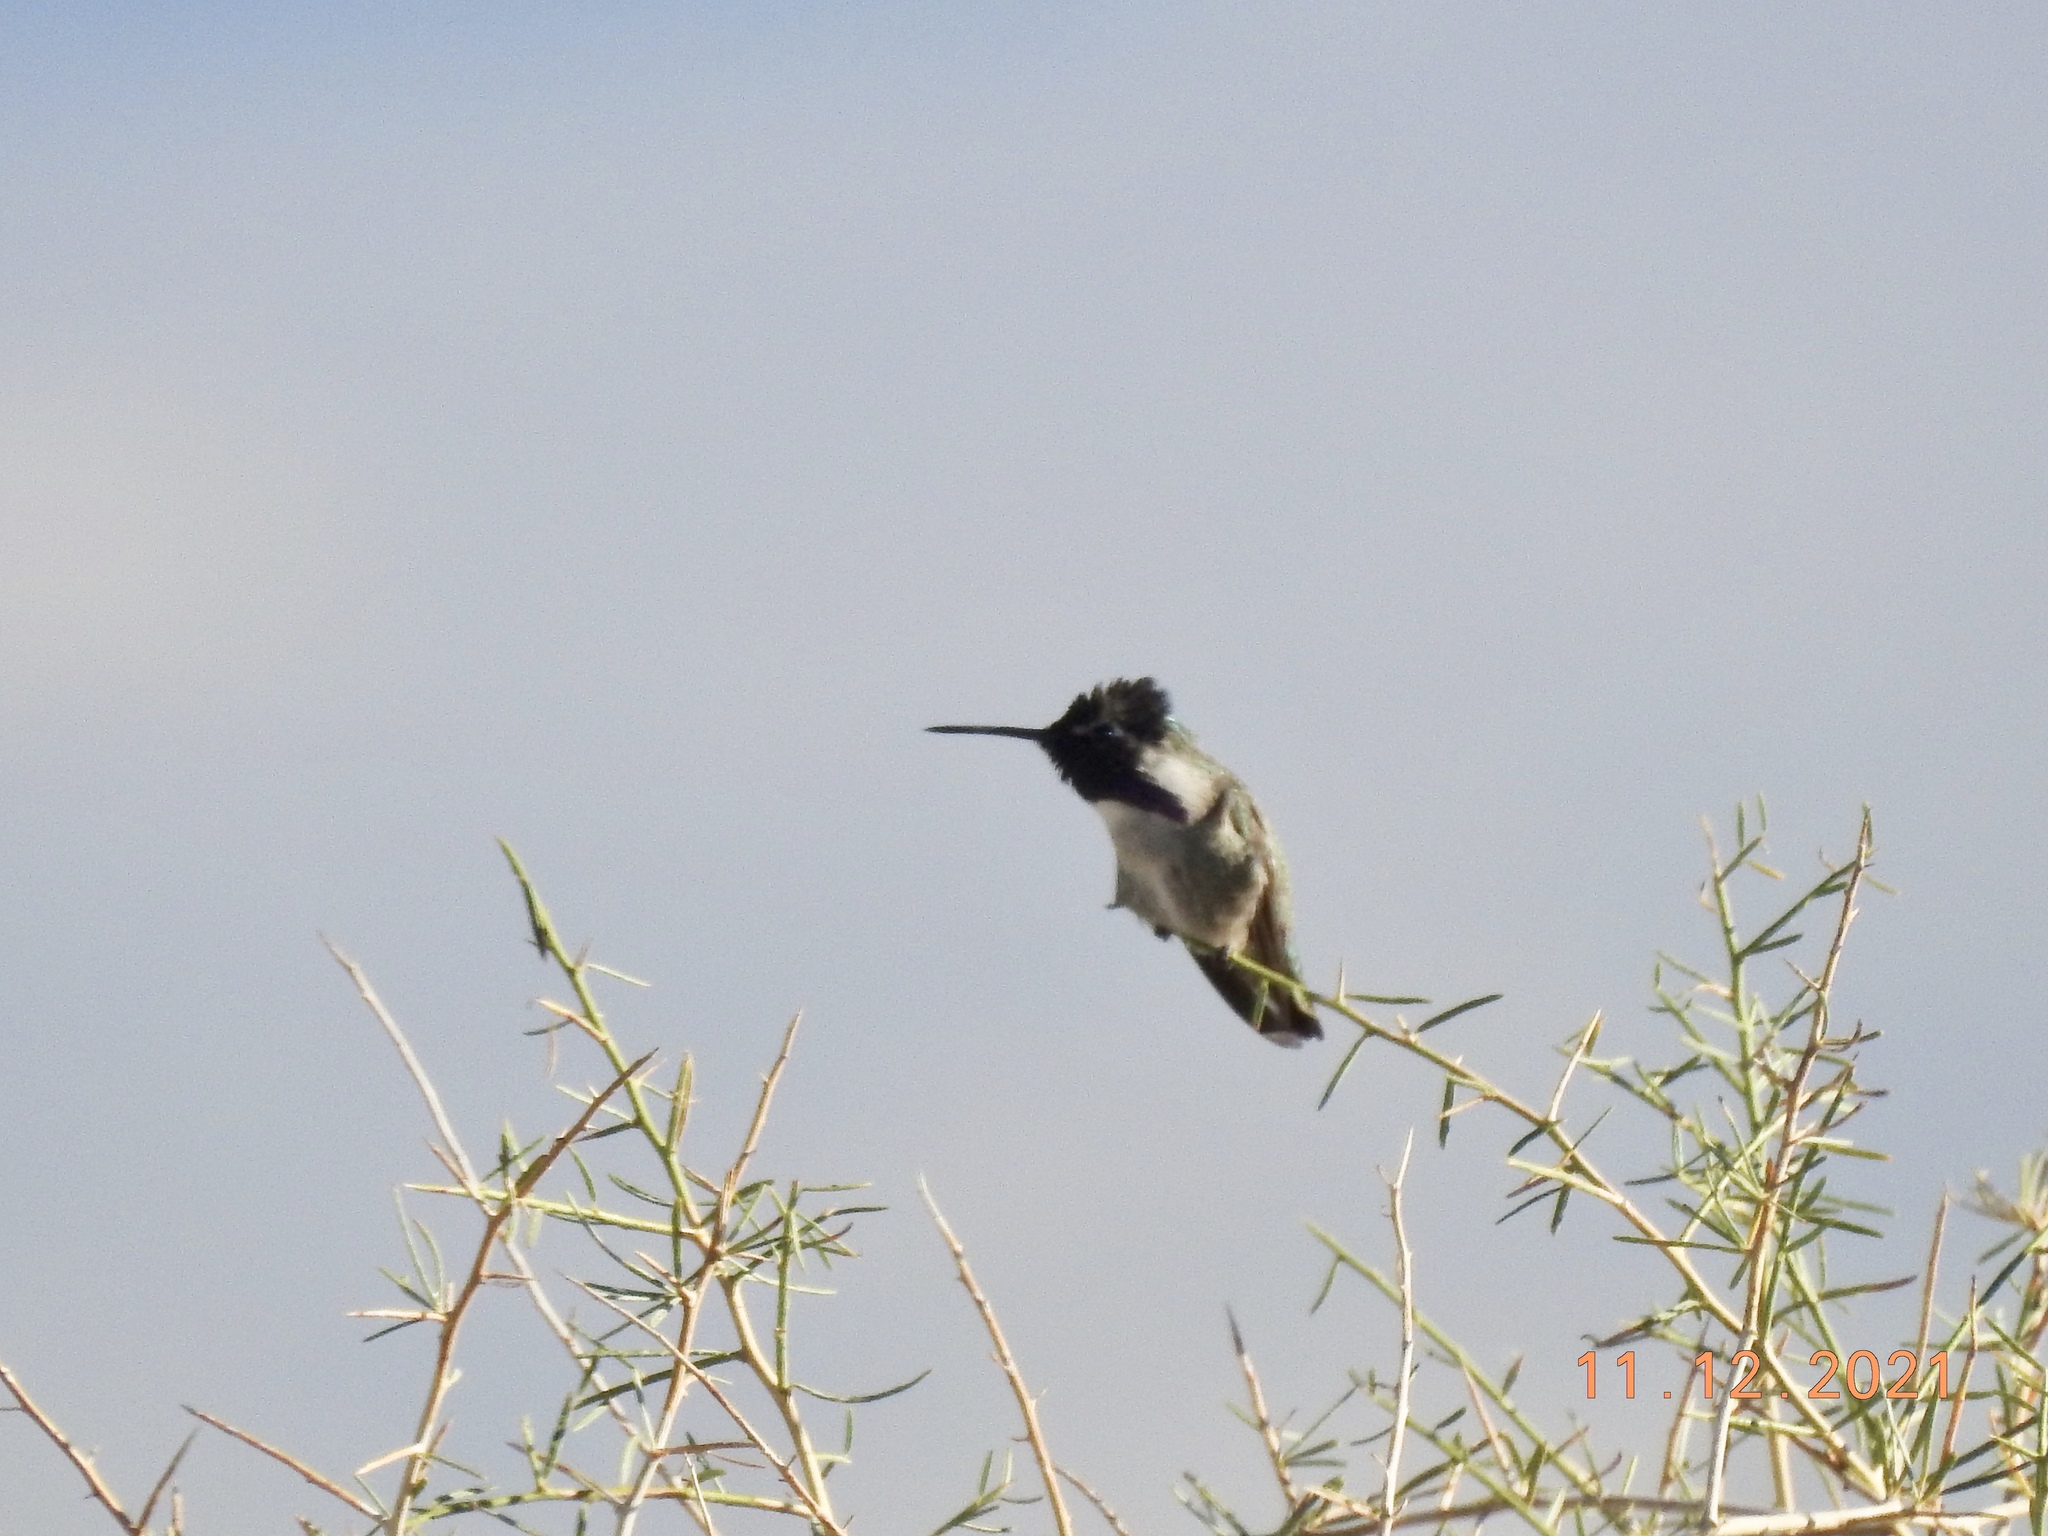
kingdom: Animalia
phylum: Chordata
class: Aves
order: Apodiformes
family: Trochilidae
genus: Calypte
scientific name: Calypte costae
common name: Costa's hummingbird
